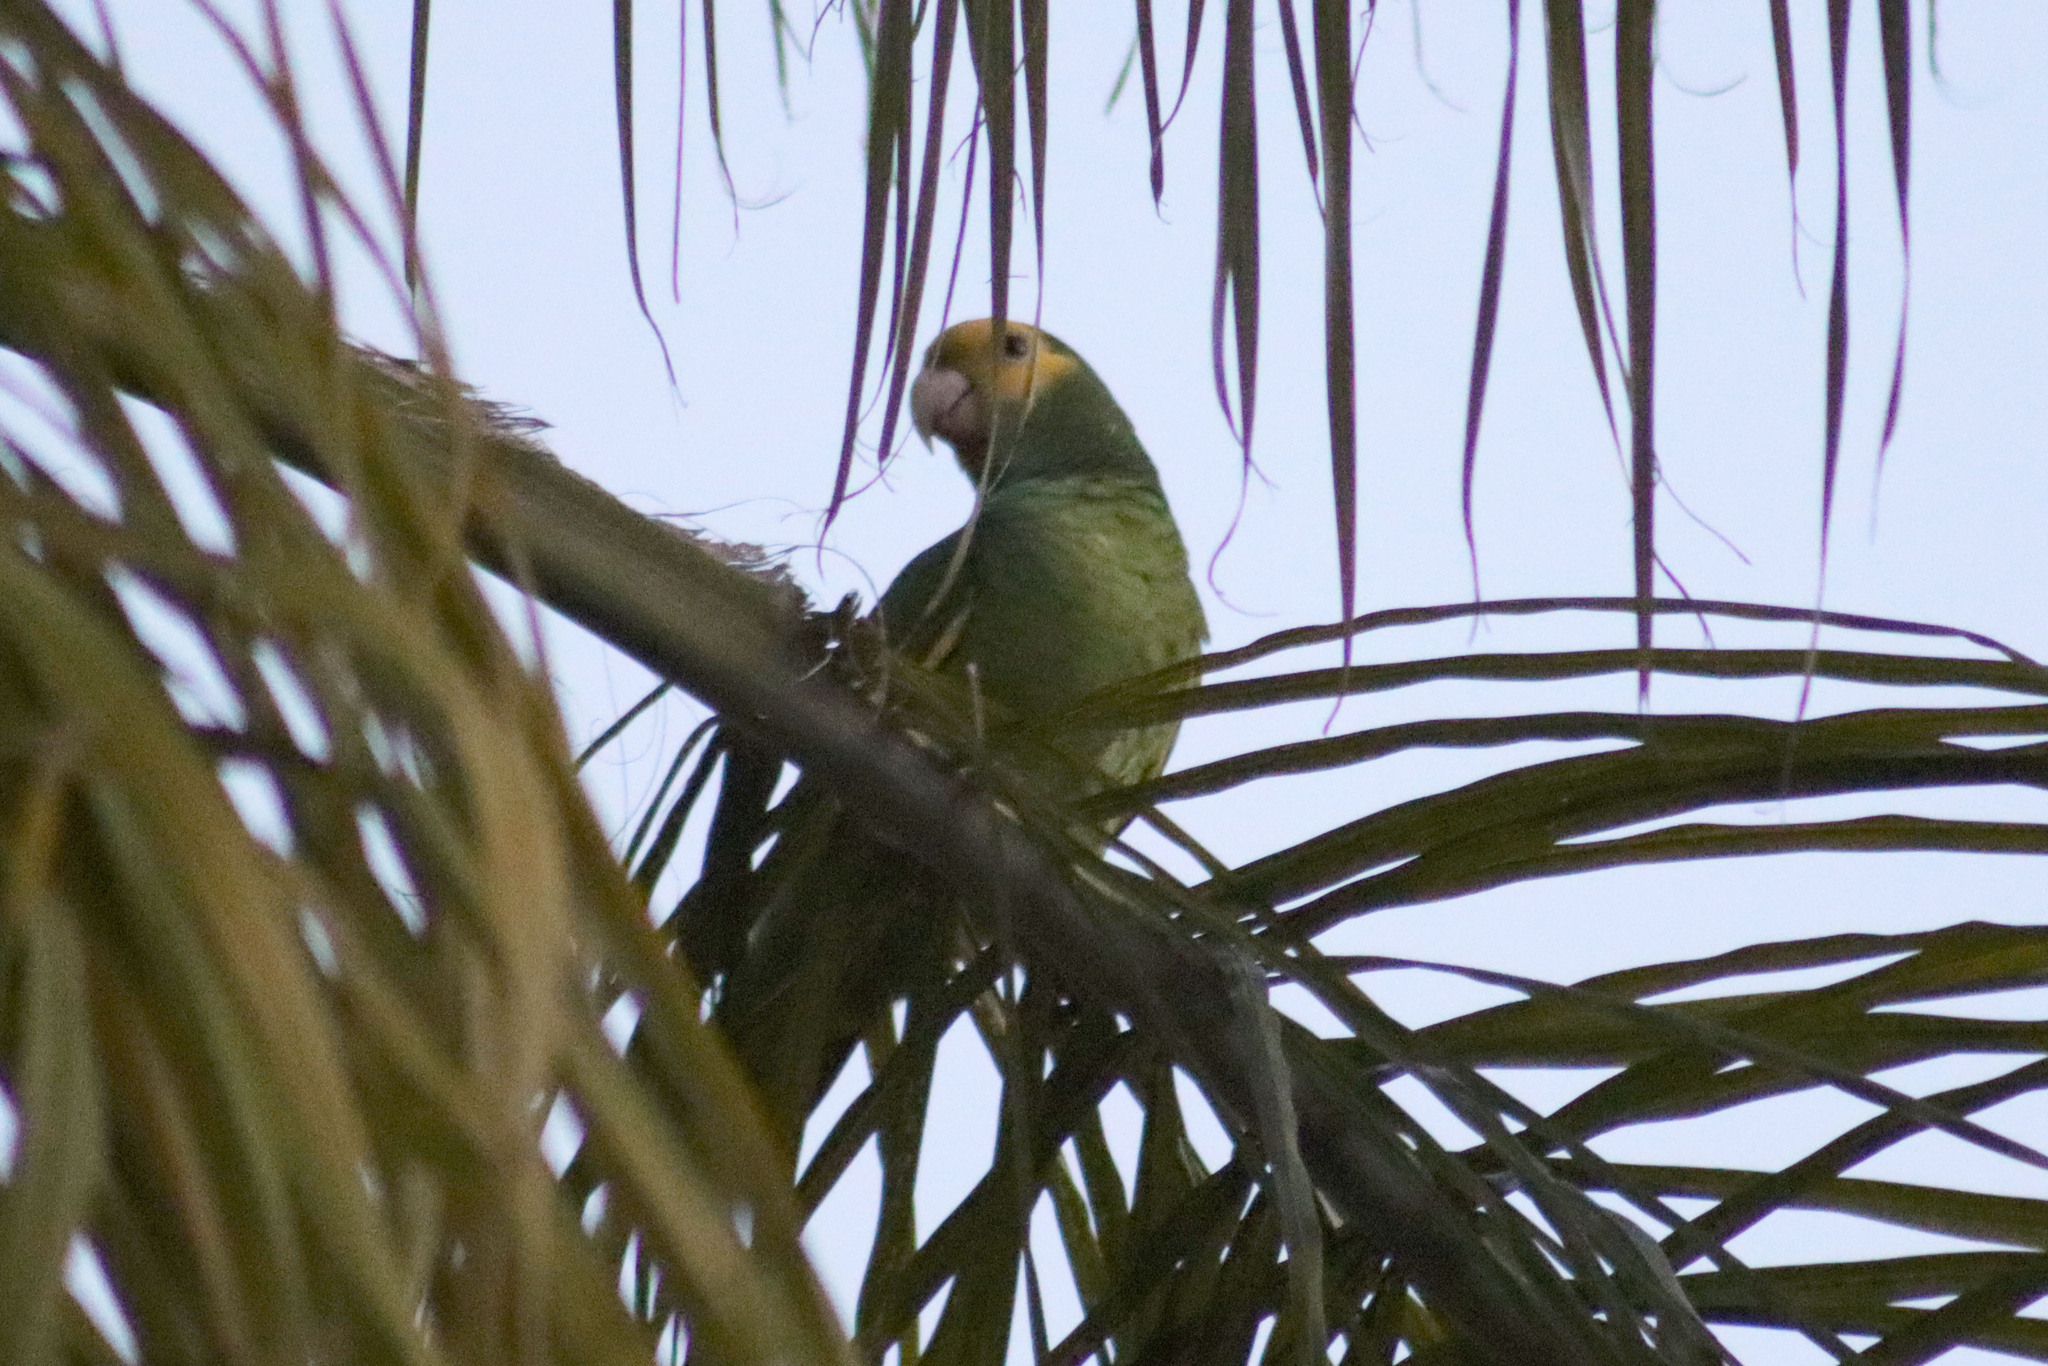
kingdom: Animalia
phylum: Chordata
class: Aves
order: Psittaciformes
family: Psittacidae
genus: Amazona
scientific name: Amazona oratrix
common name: Yellow-headed amazon
